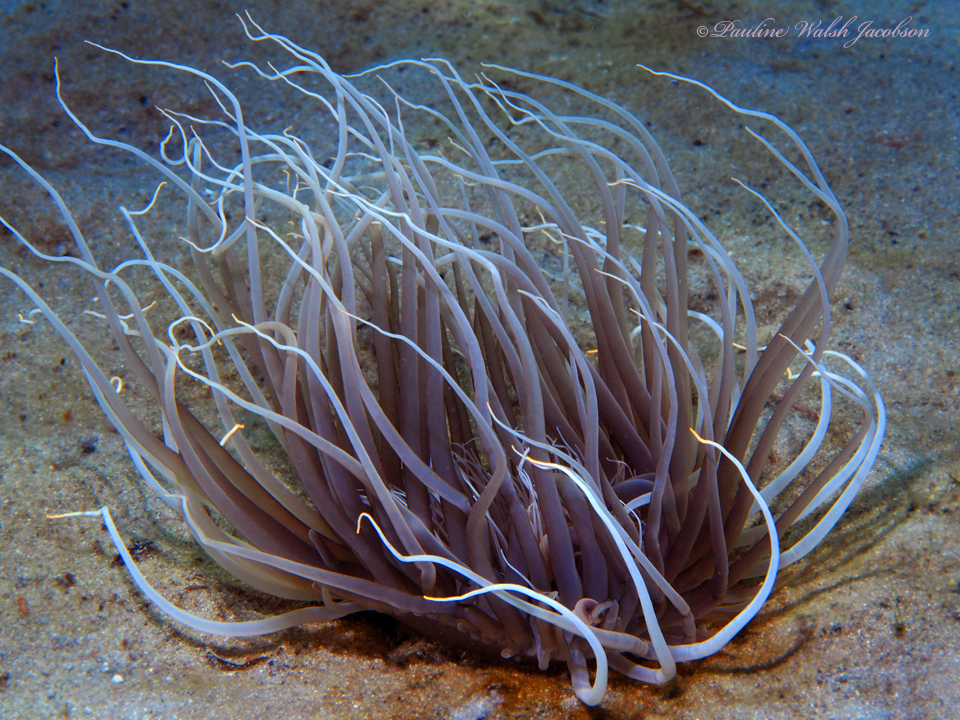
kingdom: Animalia
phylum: Cnidaria
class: Anthozoa
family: Cerianthidae
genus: Ceriantheopsis
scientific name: Ceriantheopsis americana
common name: American tube-dwelling anemone
